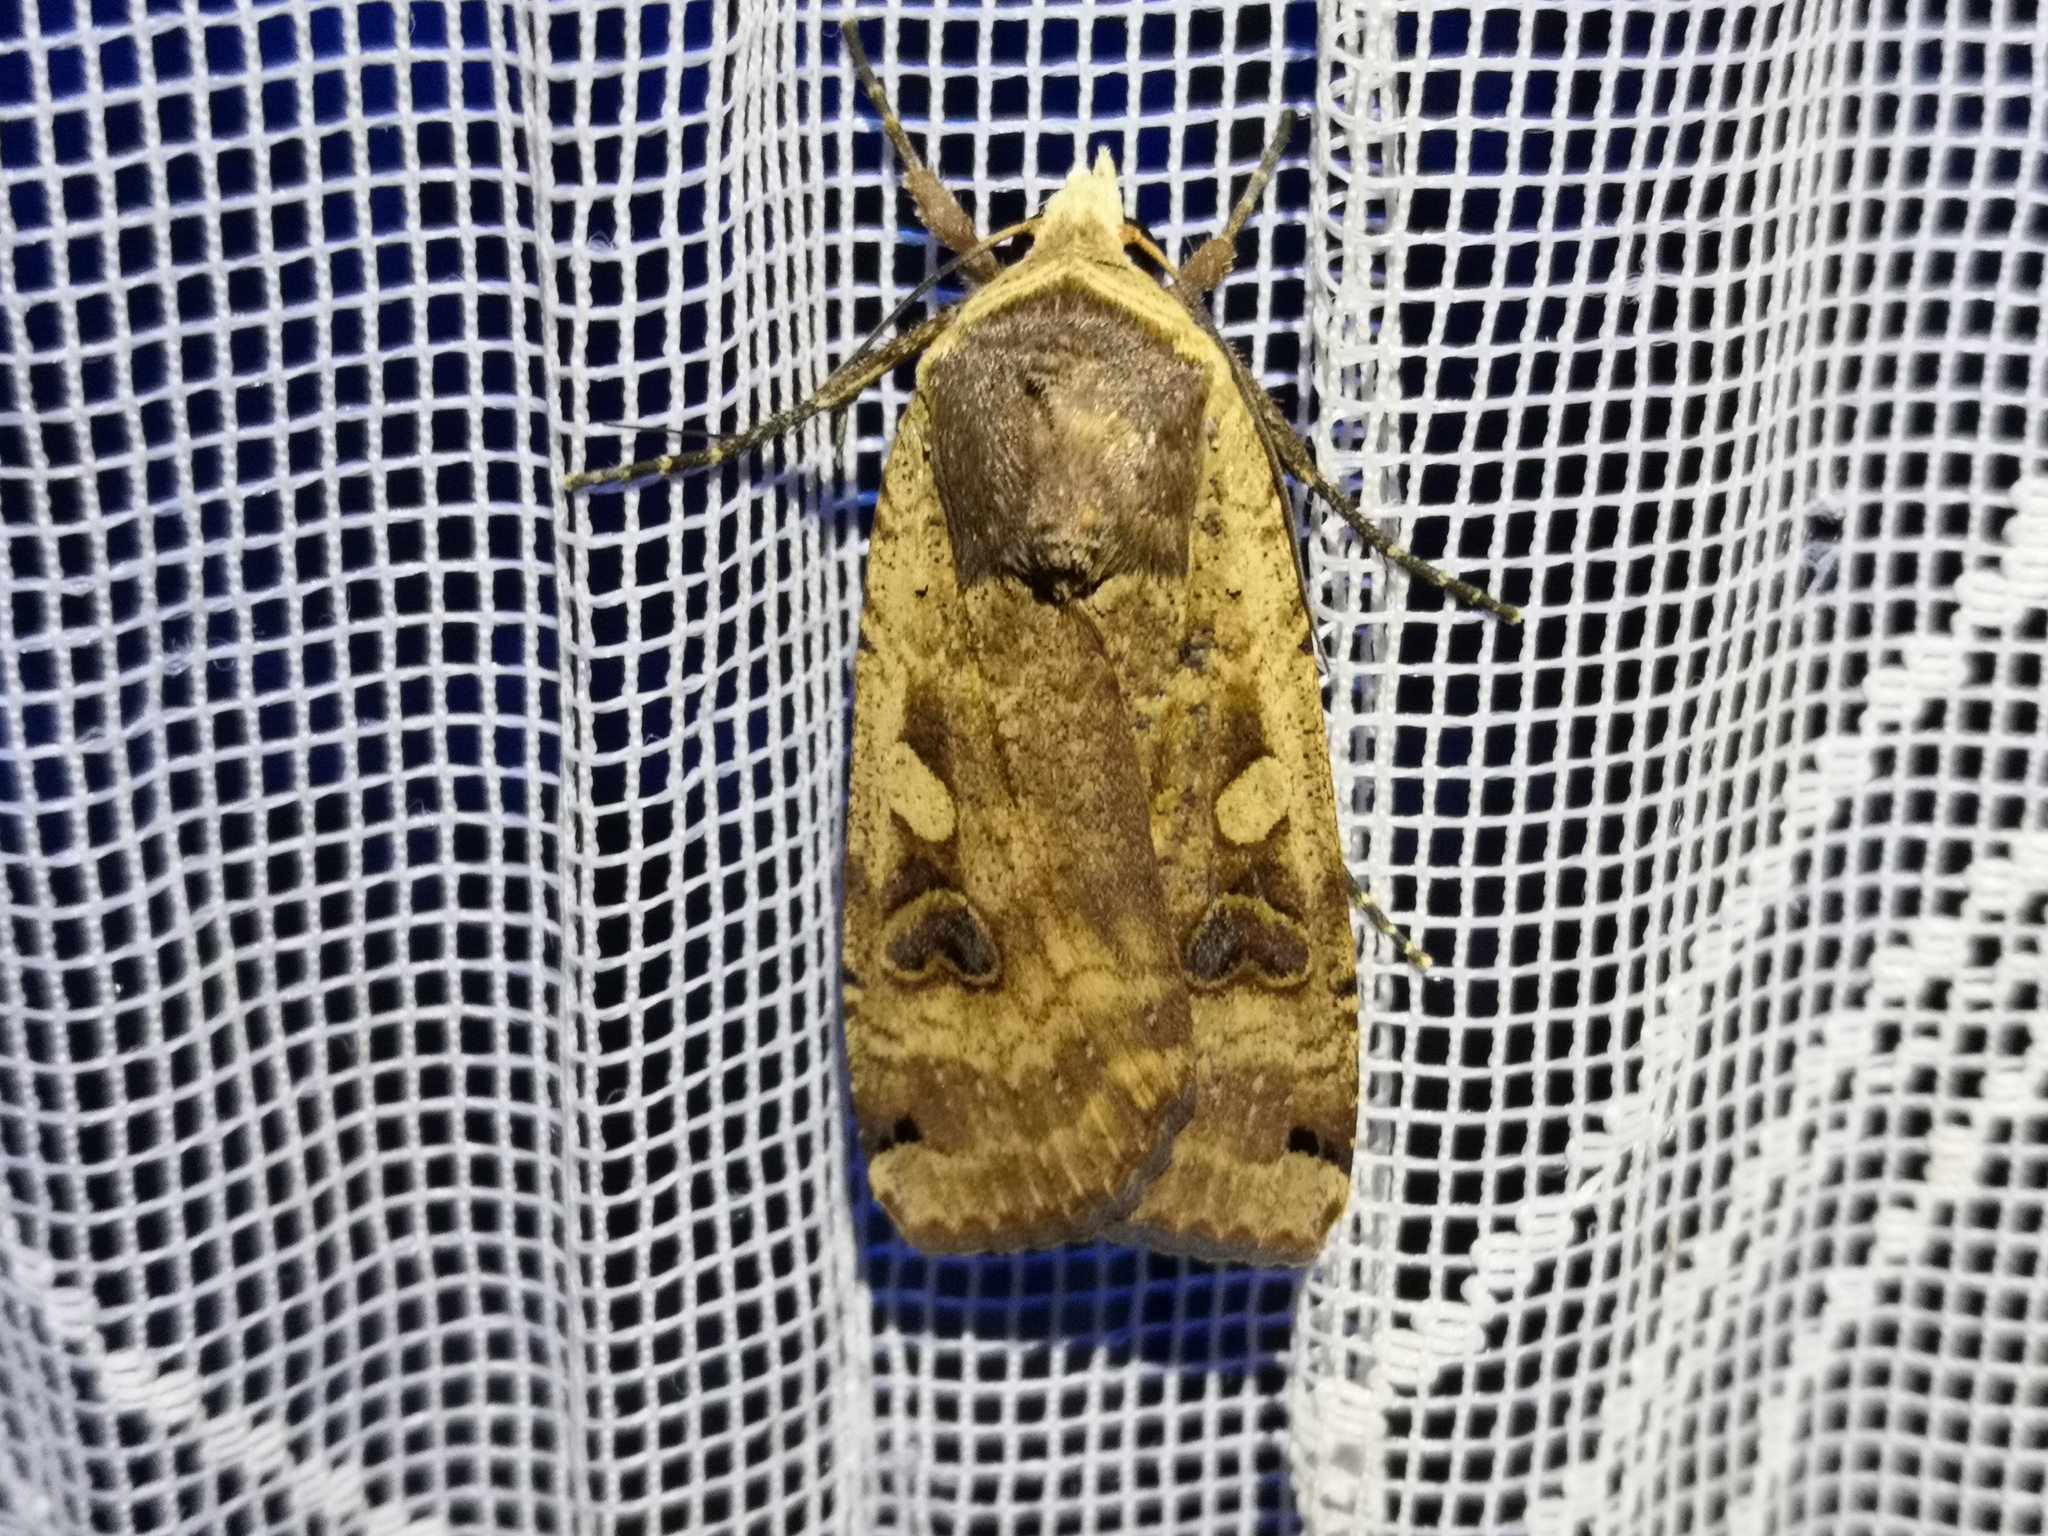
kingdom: Animalia
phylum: Arthropoda
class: Insecta
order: Lepidoptera
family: Noctuidae
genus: Noctua
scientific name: Noctua pronuba
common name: Large yellow underwing
